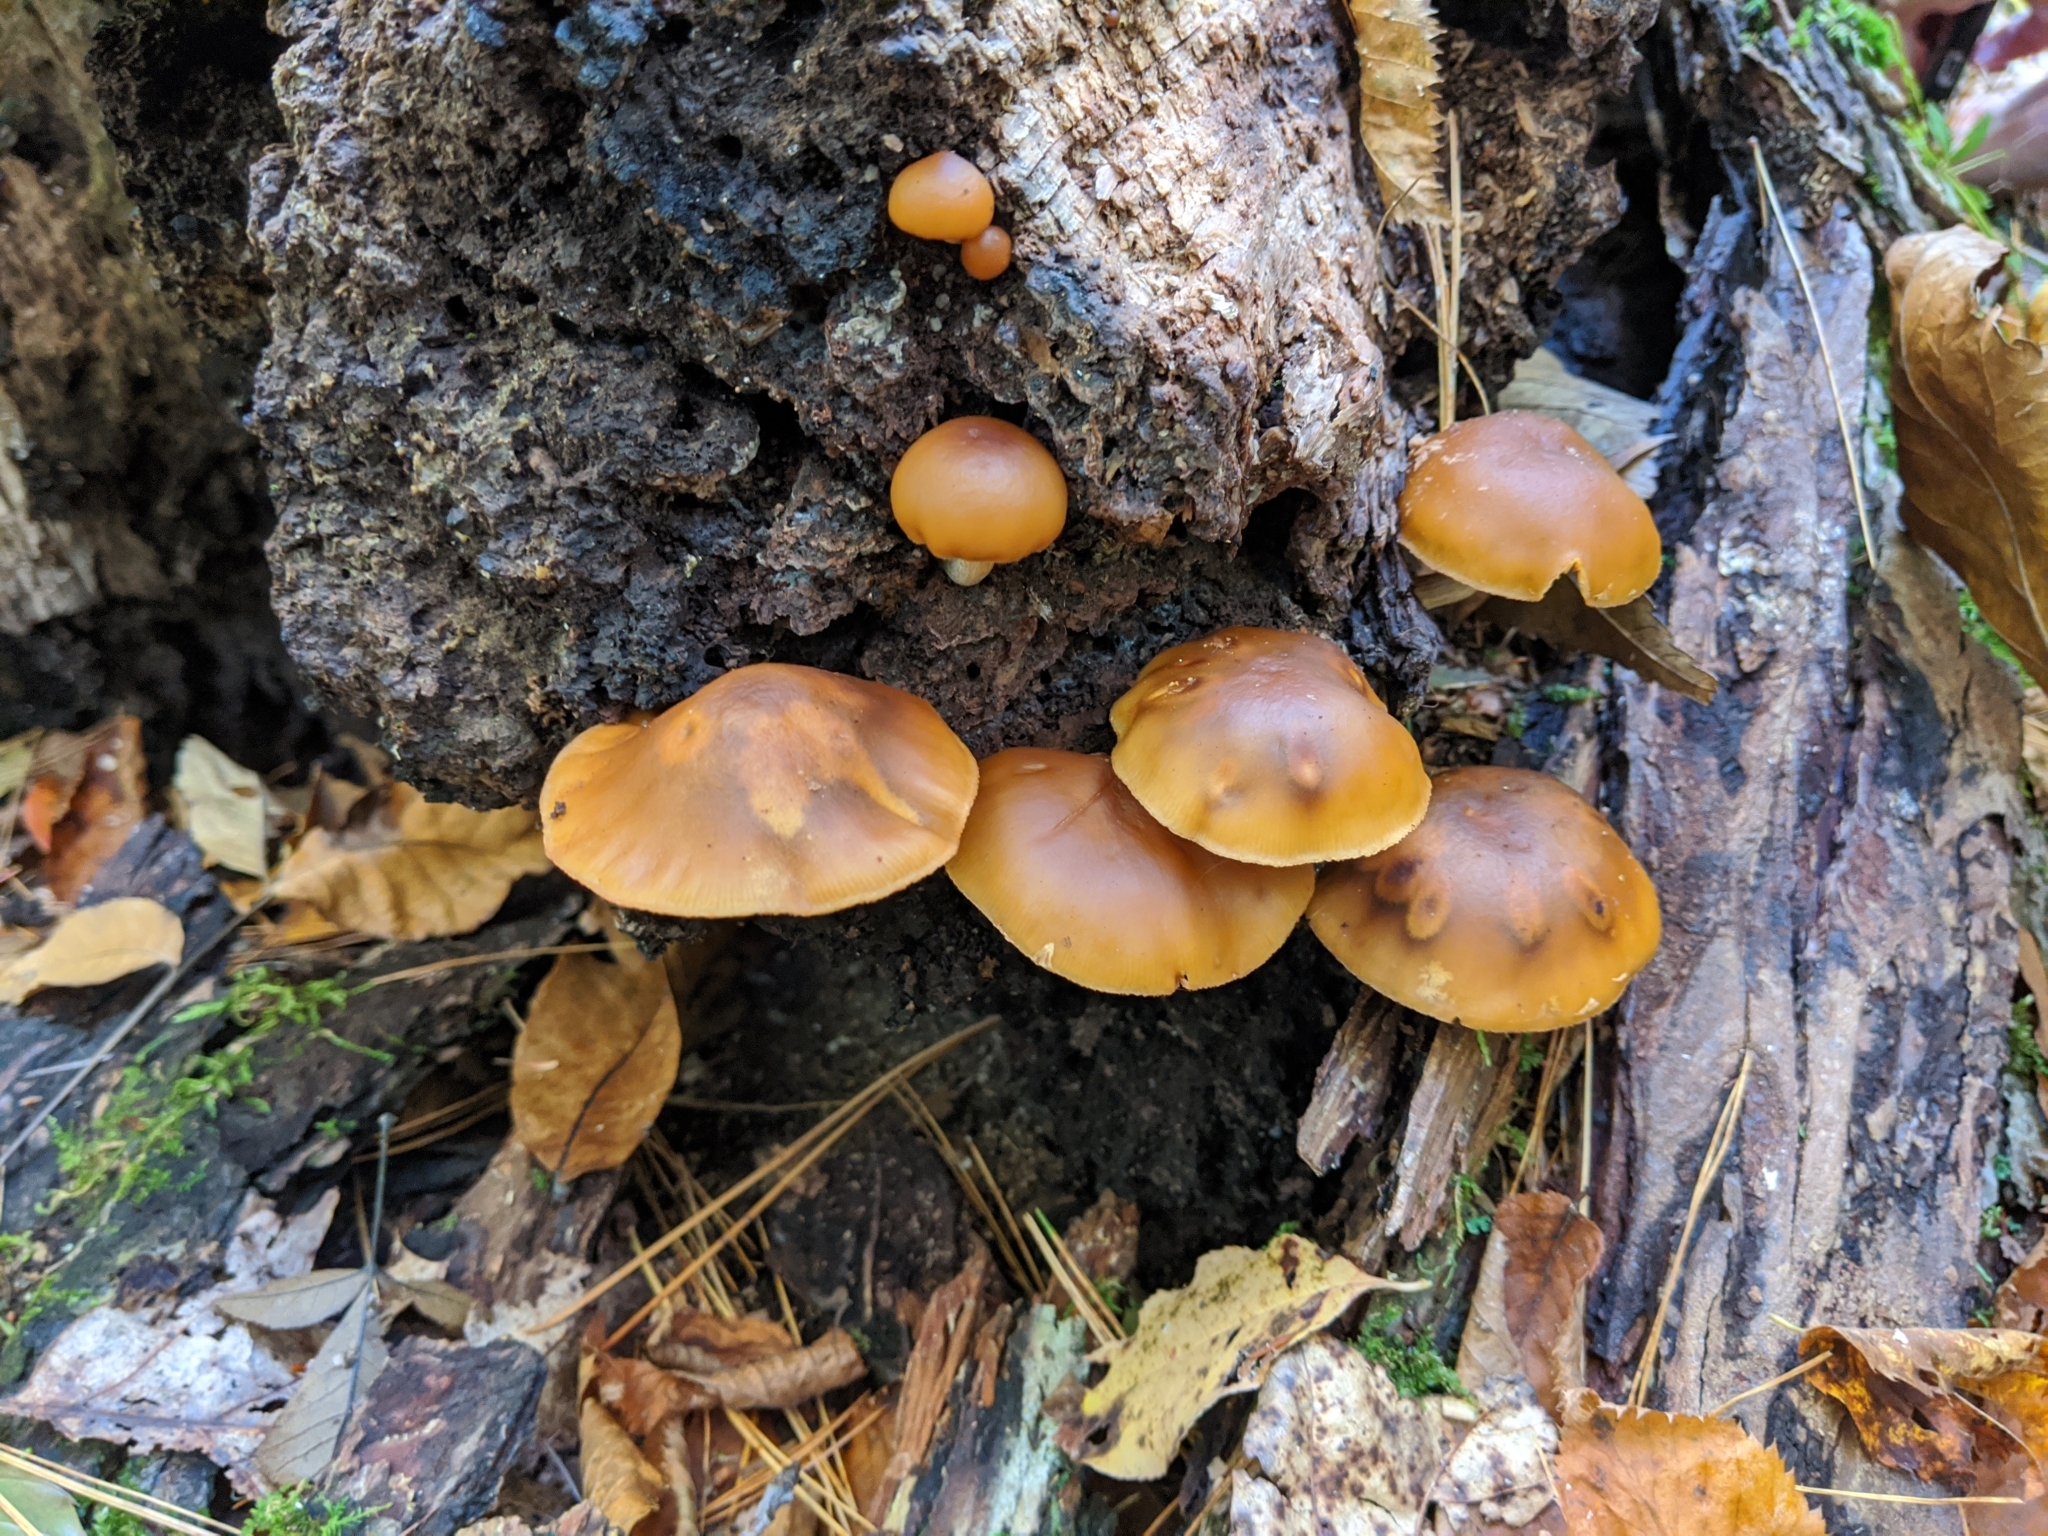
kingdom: Fungi
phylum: Basidiomycota
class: Agaricomycetes
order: Agaricales
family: Hymenogastraceae
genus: Galerina
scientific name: Galerina marginata
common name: Funeral bell
